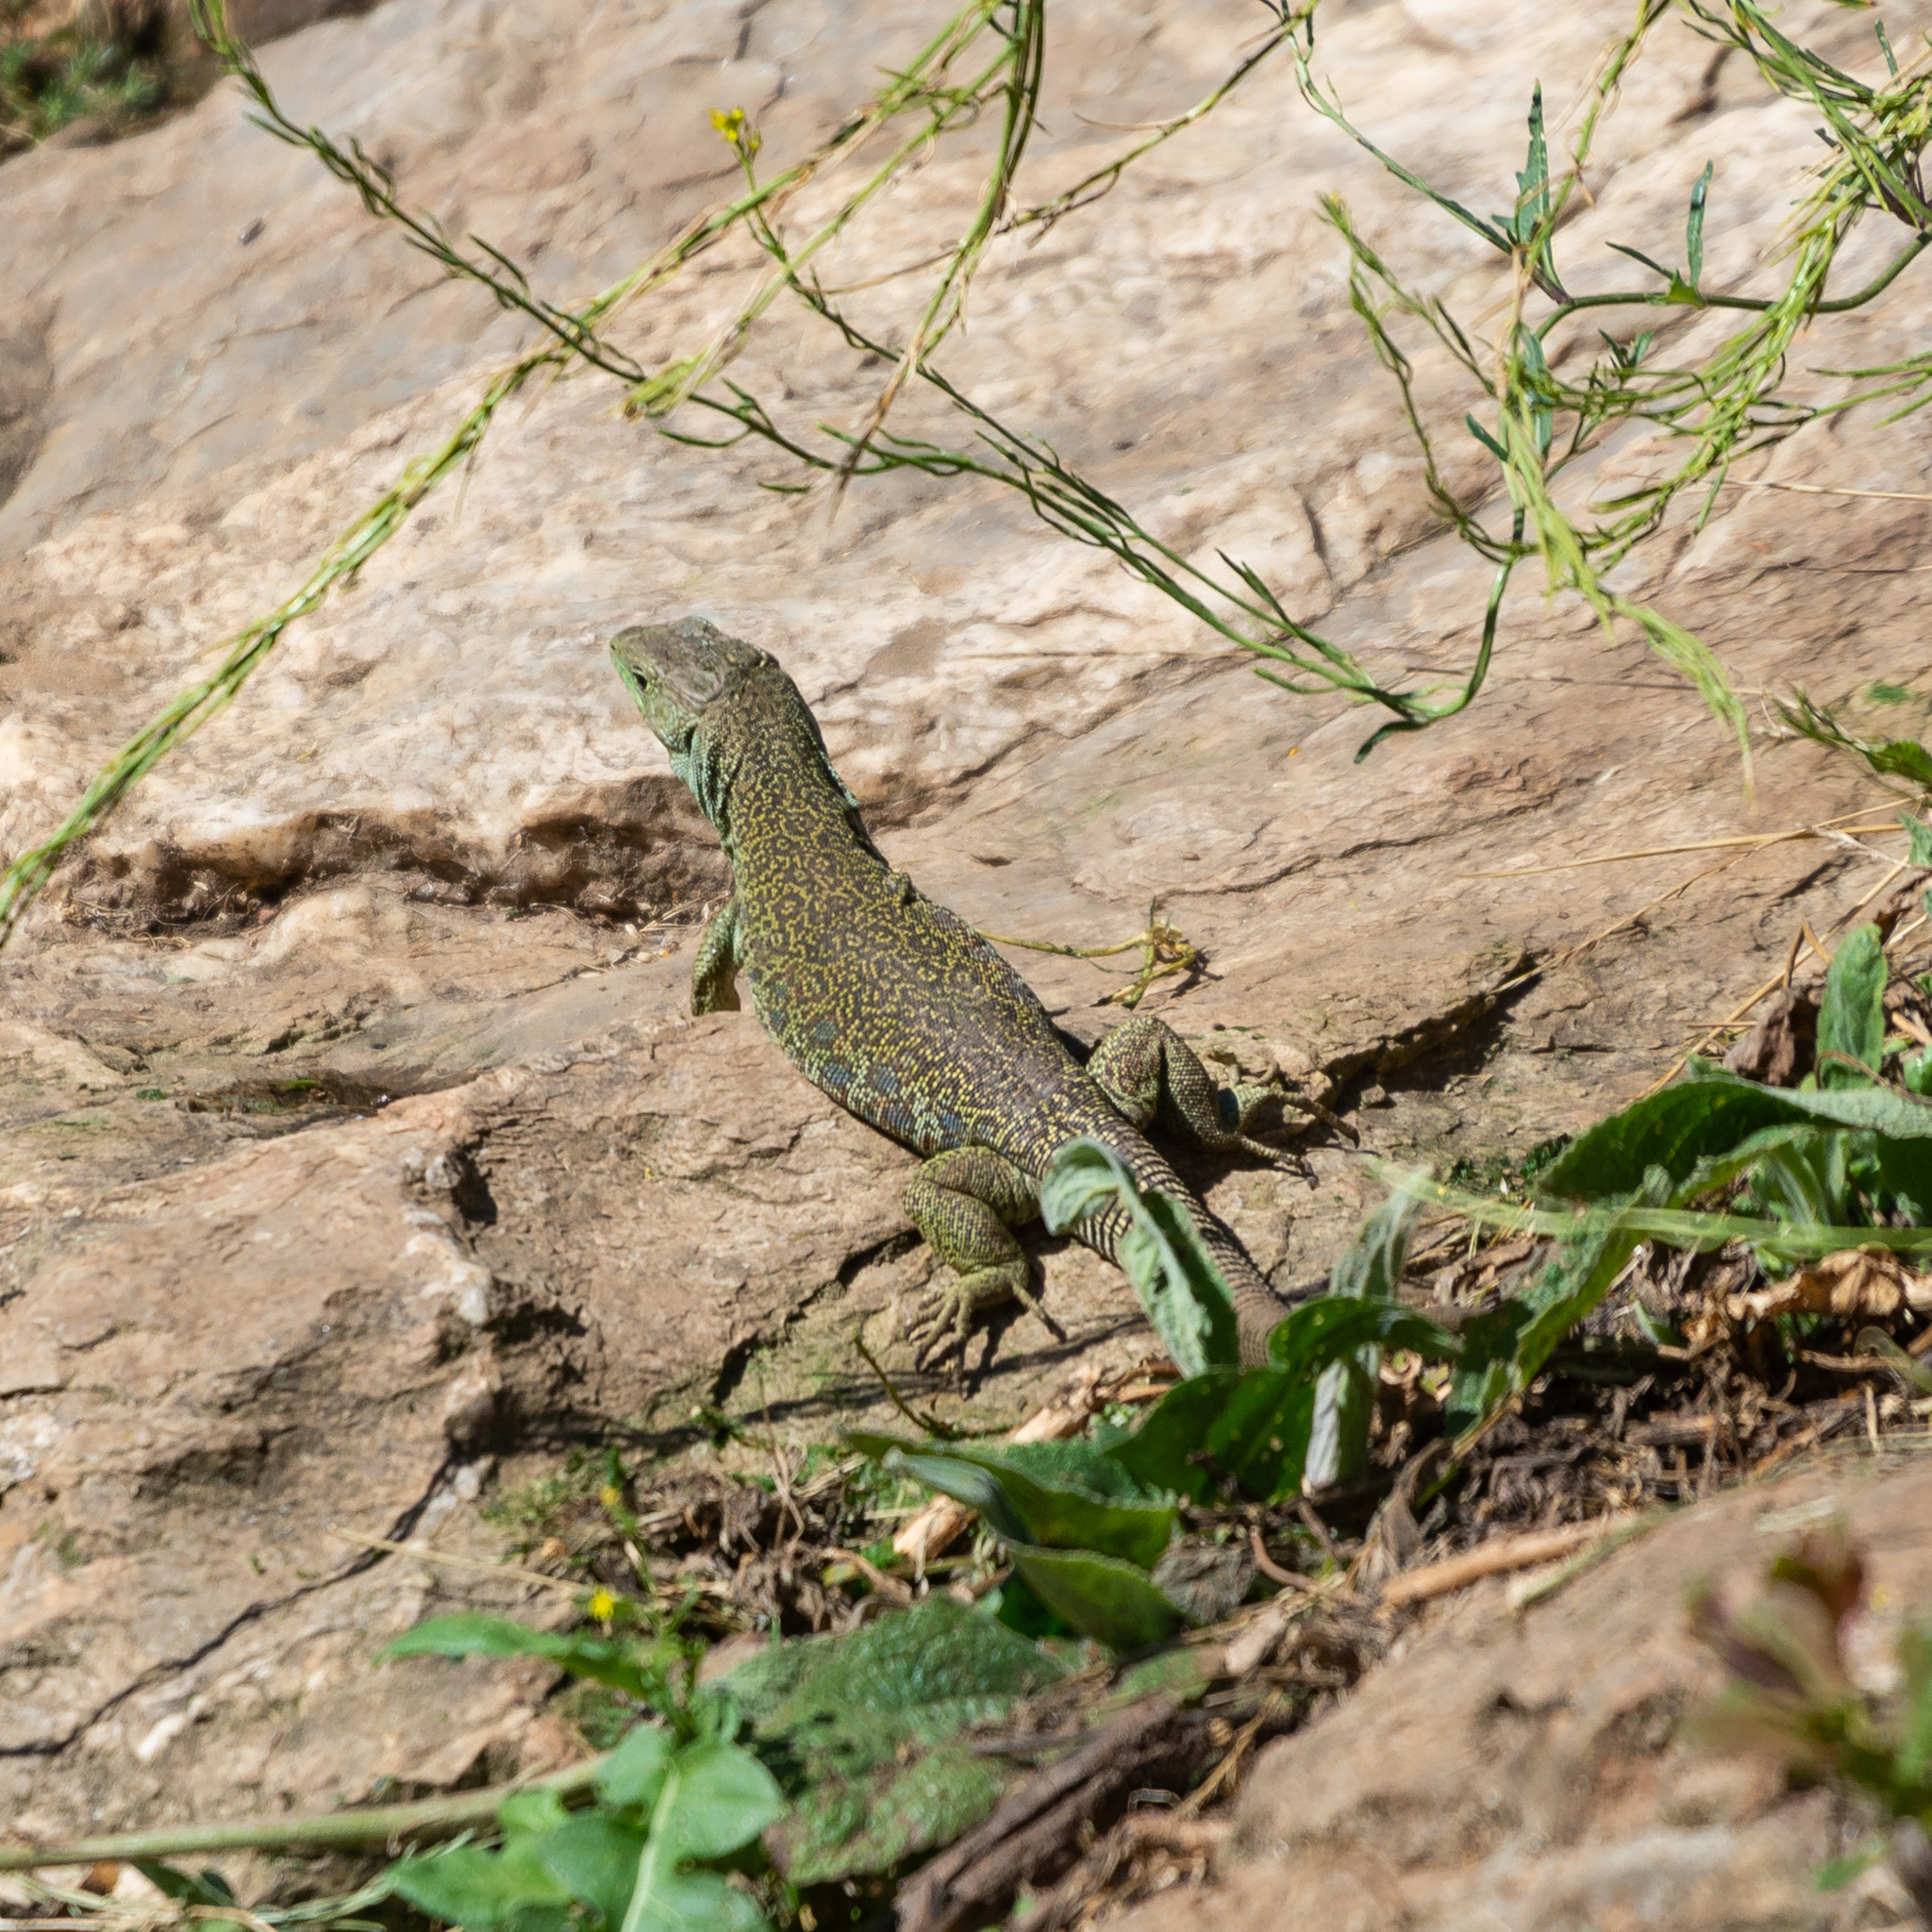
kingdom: Animalia
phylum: Chordata
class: Squamata
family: Lacertidae
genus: Timon
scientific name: Timon lepidus
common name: Ocellated lizard
